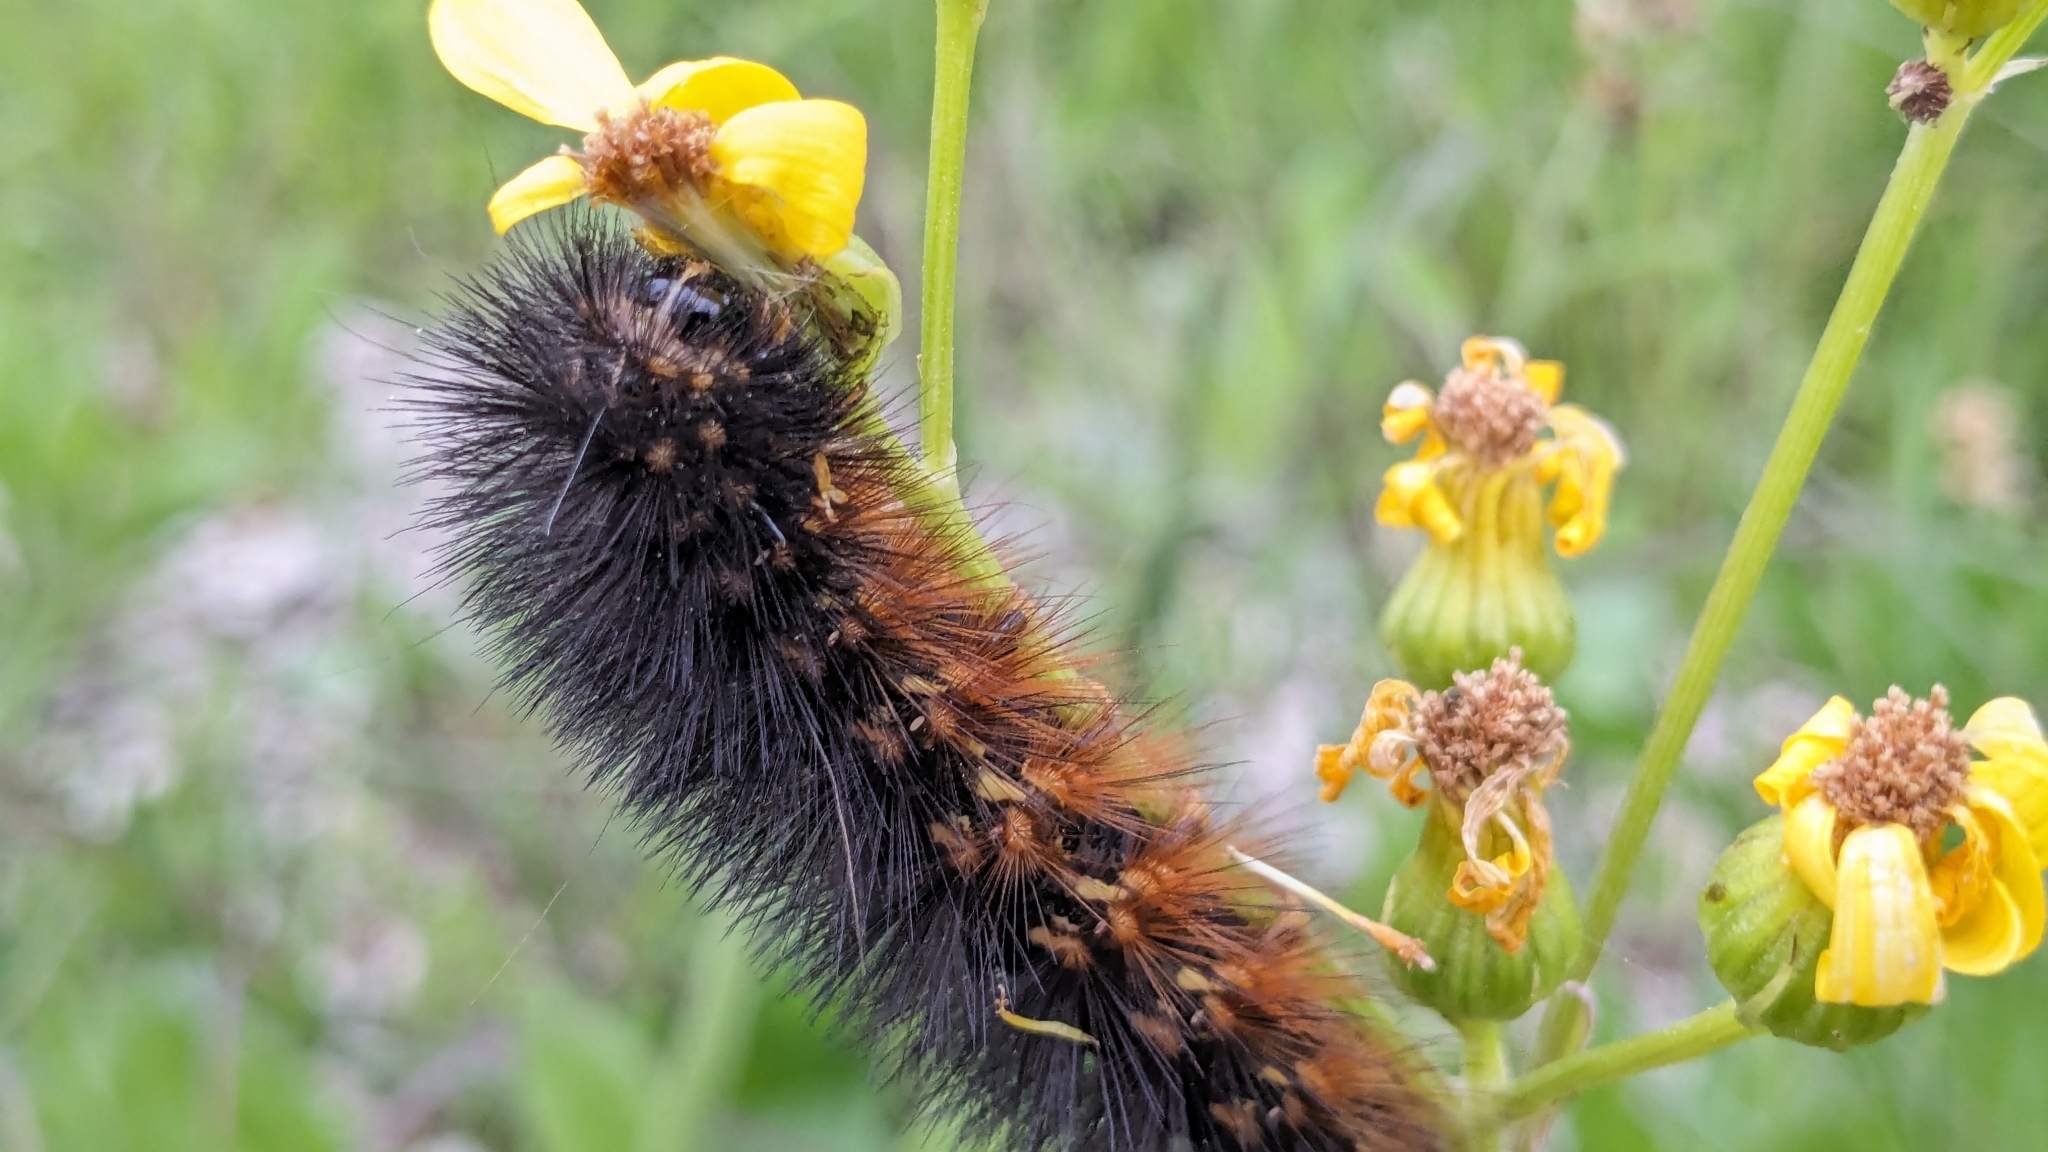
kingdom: Animalia
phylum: Arthropoda
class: Insecta
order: Lepidoptera
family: Erebidae
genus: Estigmene
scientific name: Estigmene acrea
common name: Salt marsh moth
